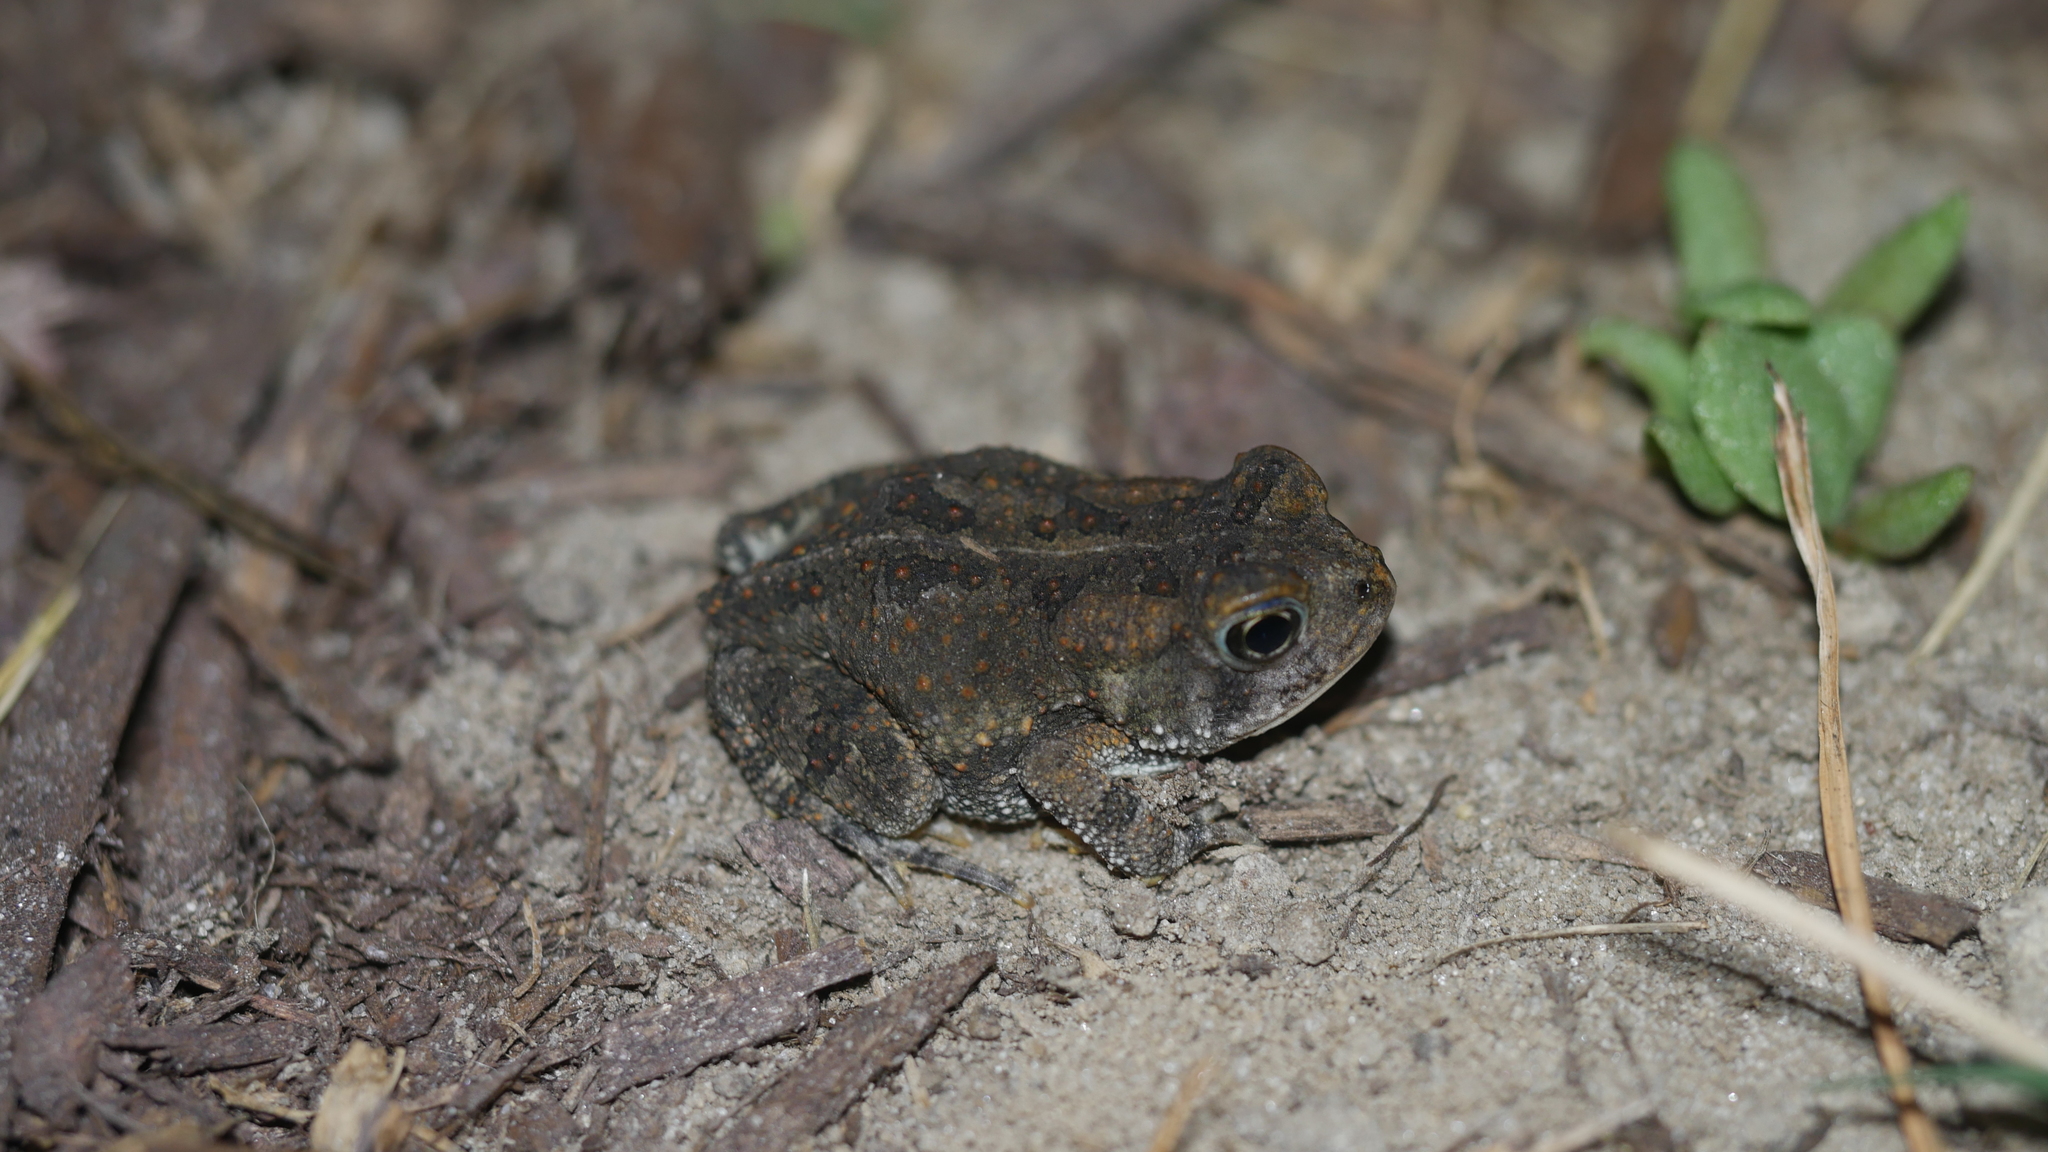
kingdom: Animalia
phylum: Chordata
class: Amphibia
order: Anura
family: Bufonidae
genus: Anaxyrus
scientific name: Anaxyrus fowleri
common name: Fowler's toad
